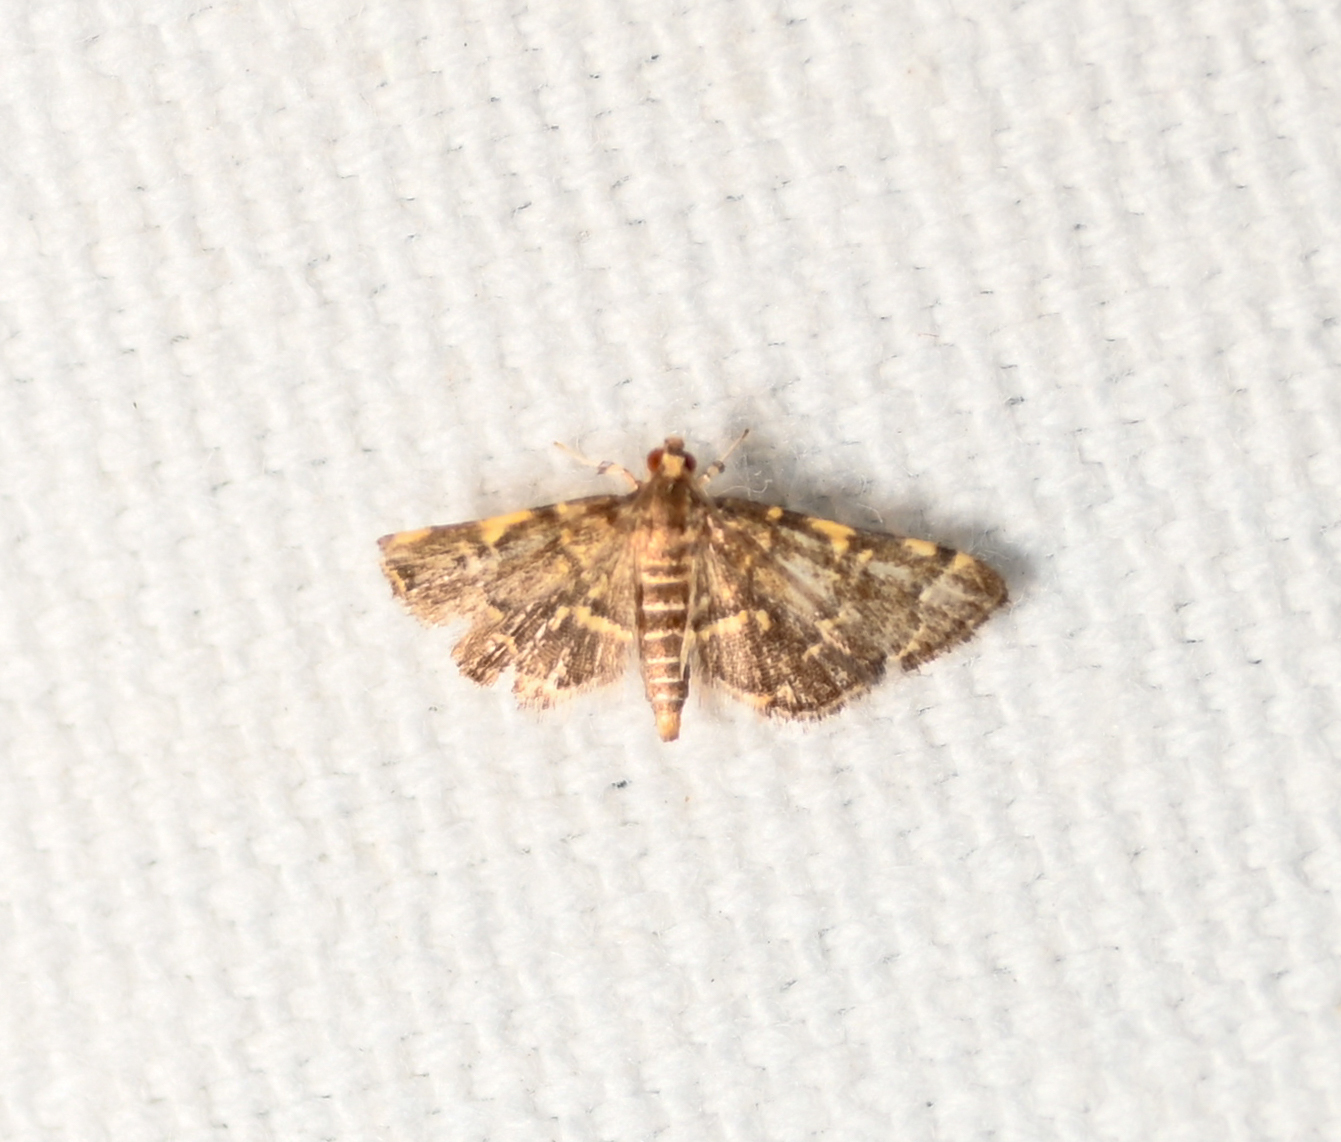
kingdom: Animalia
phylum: Arthropoda
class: Insecta
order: Lepidoptera
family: Crambidae
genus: Anageshna
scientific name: Anageshna primordialis
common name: Yellow-spotted webworm moth
